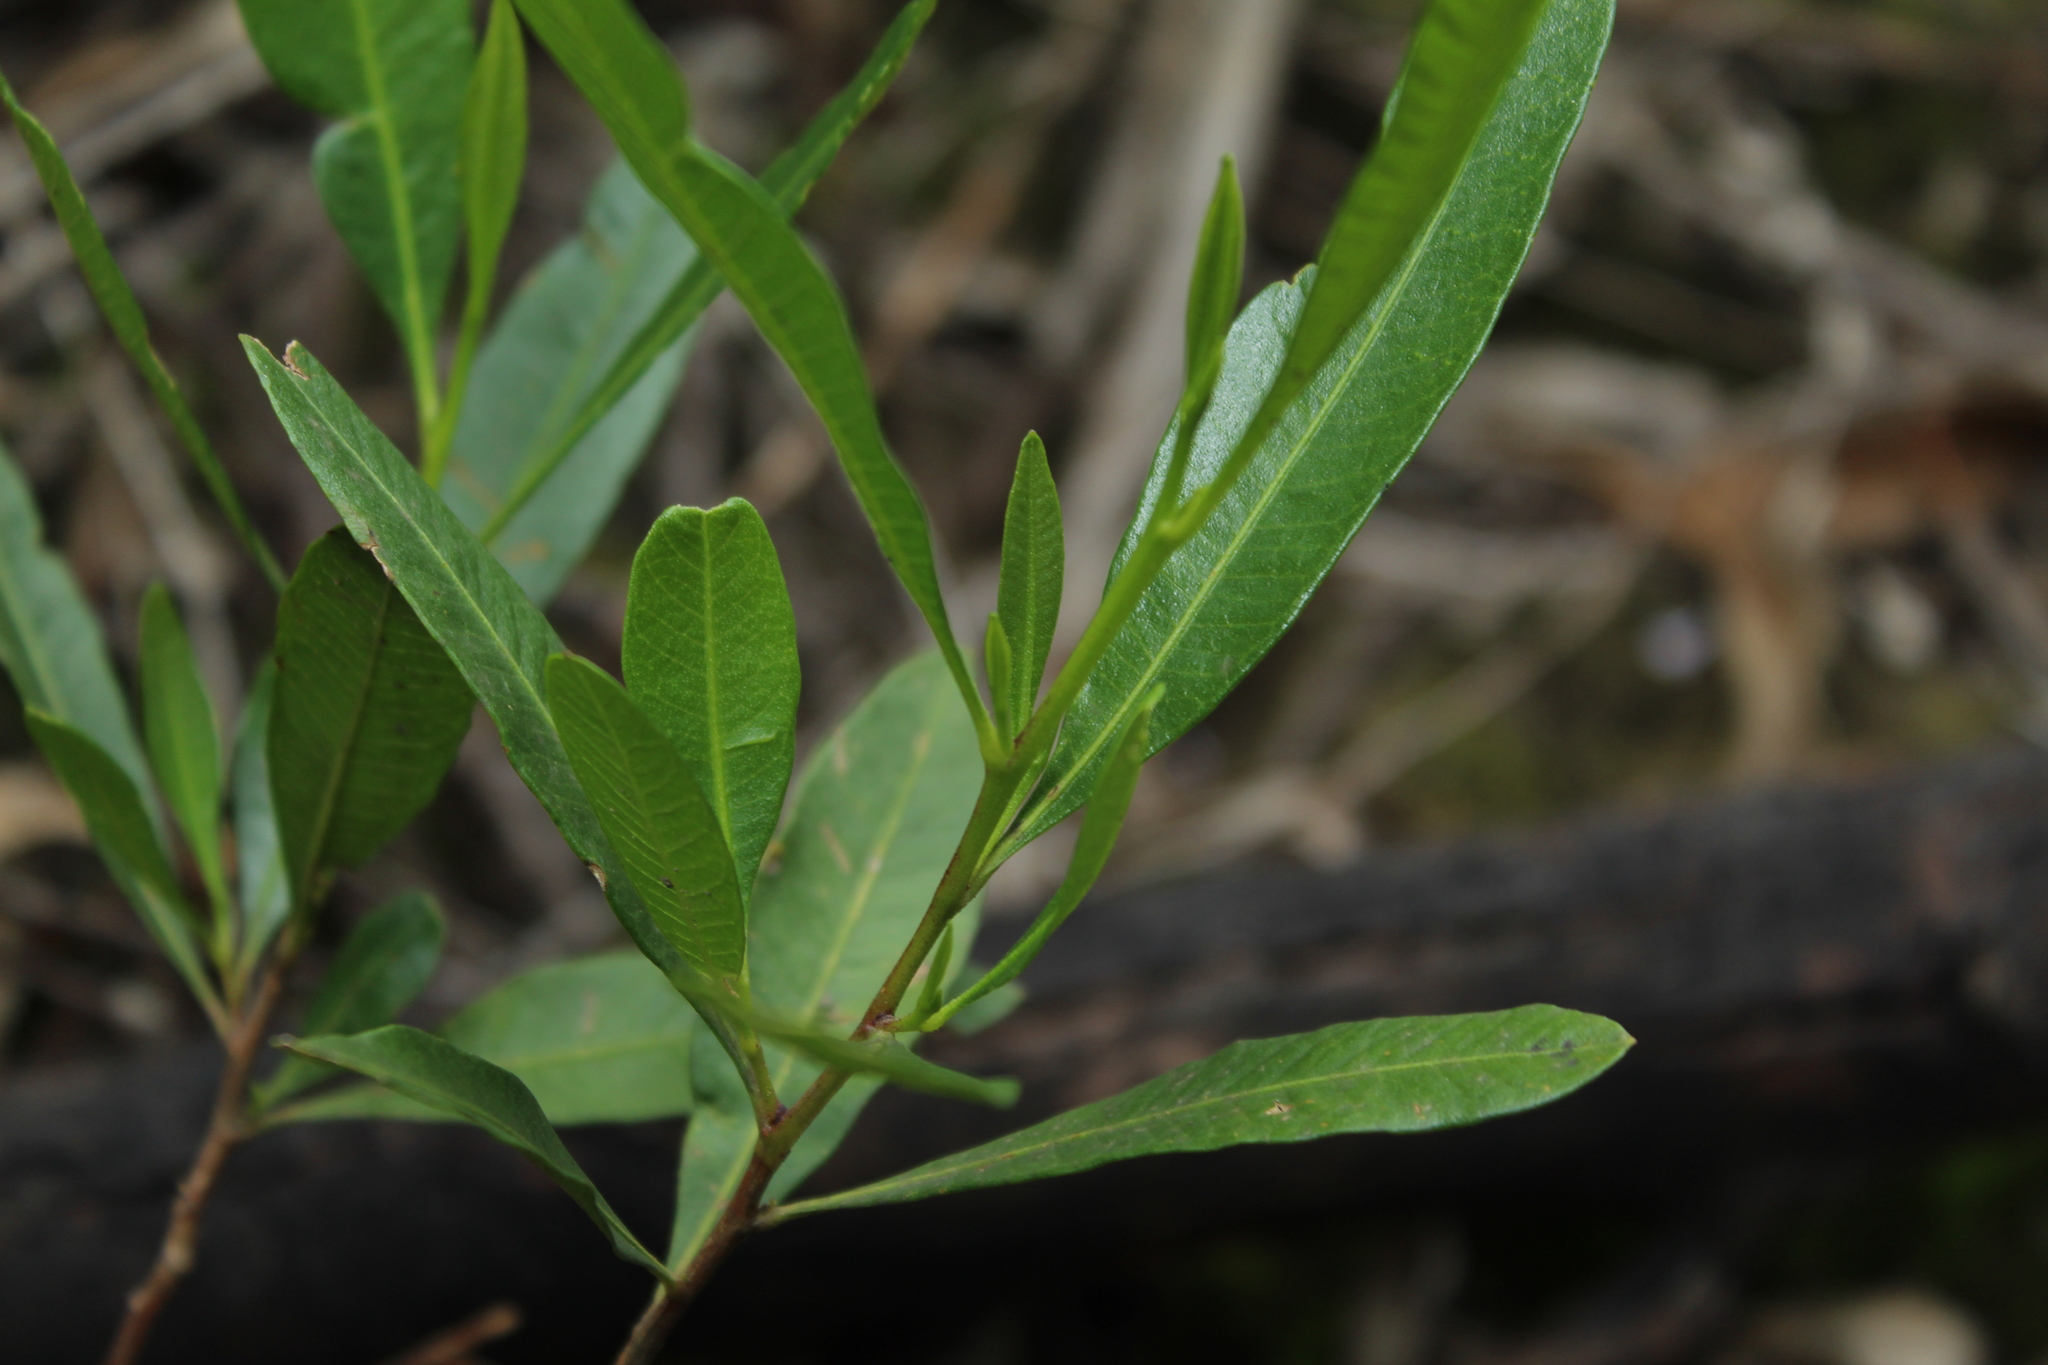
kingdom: Plantae
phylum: Tracheophyta
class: Magnoliopsida
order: Sapindales
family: Sapindaceae
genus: Dodonaea
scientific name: Dodonaea viscosa
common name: Hopbush
